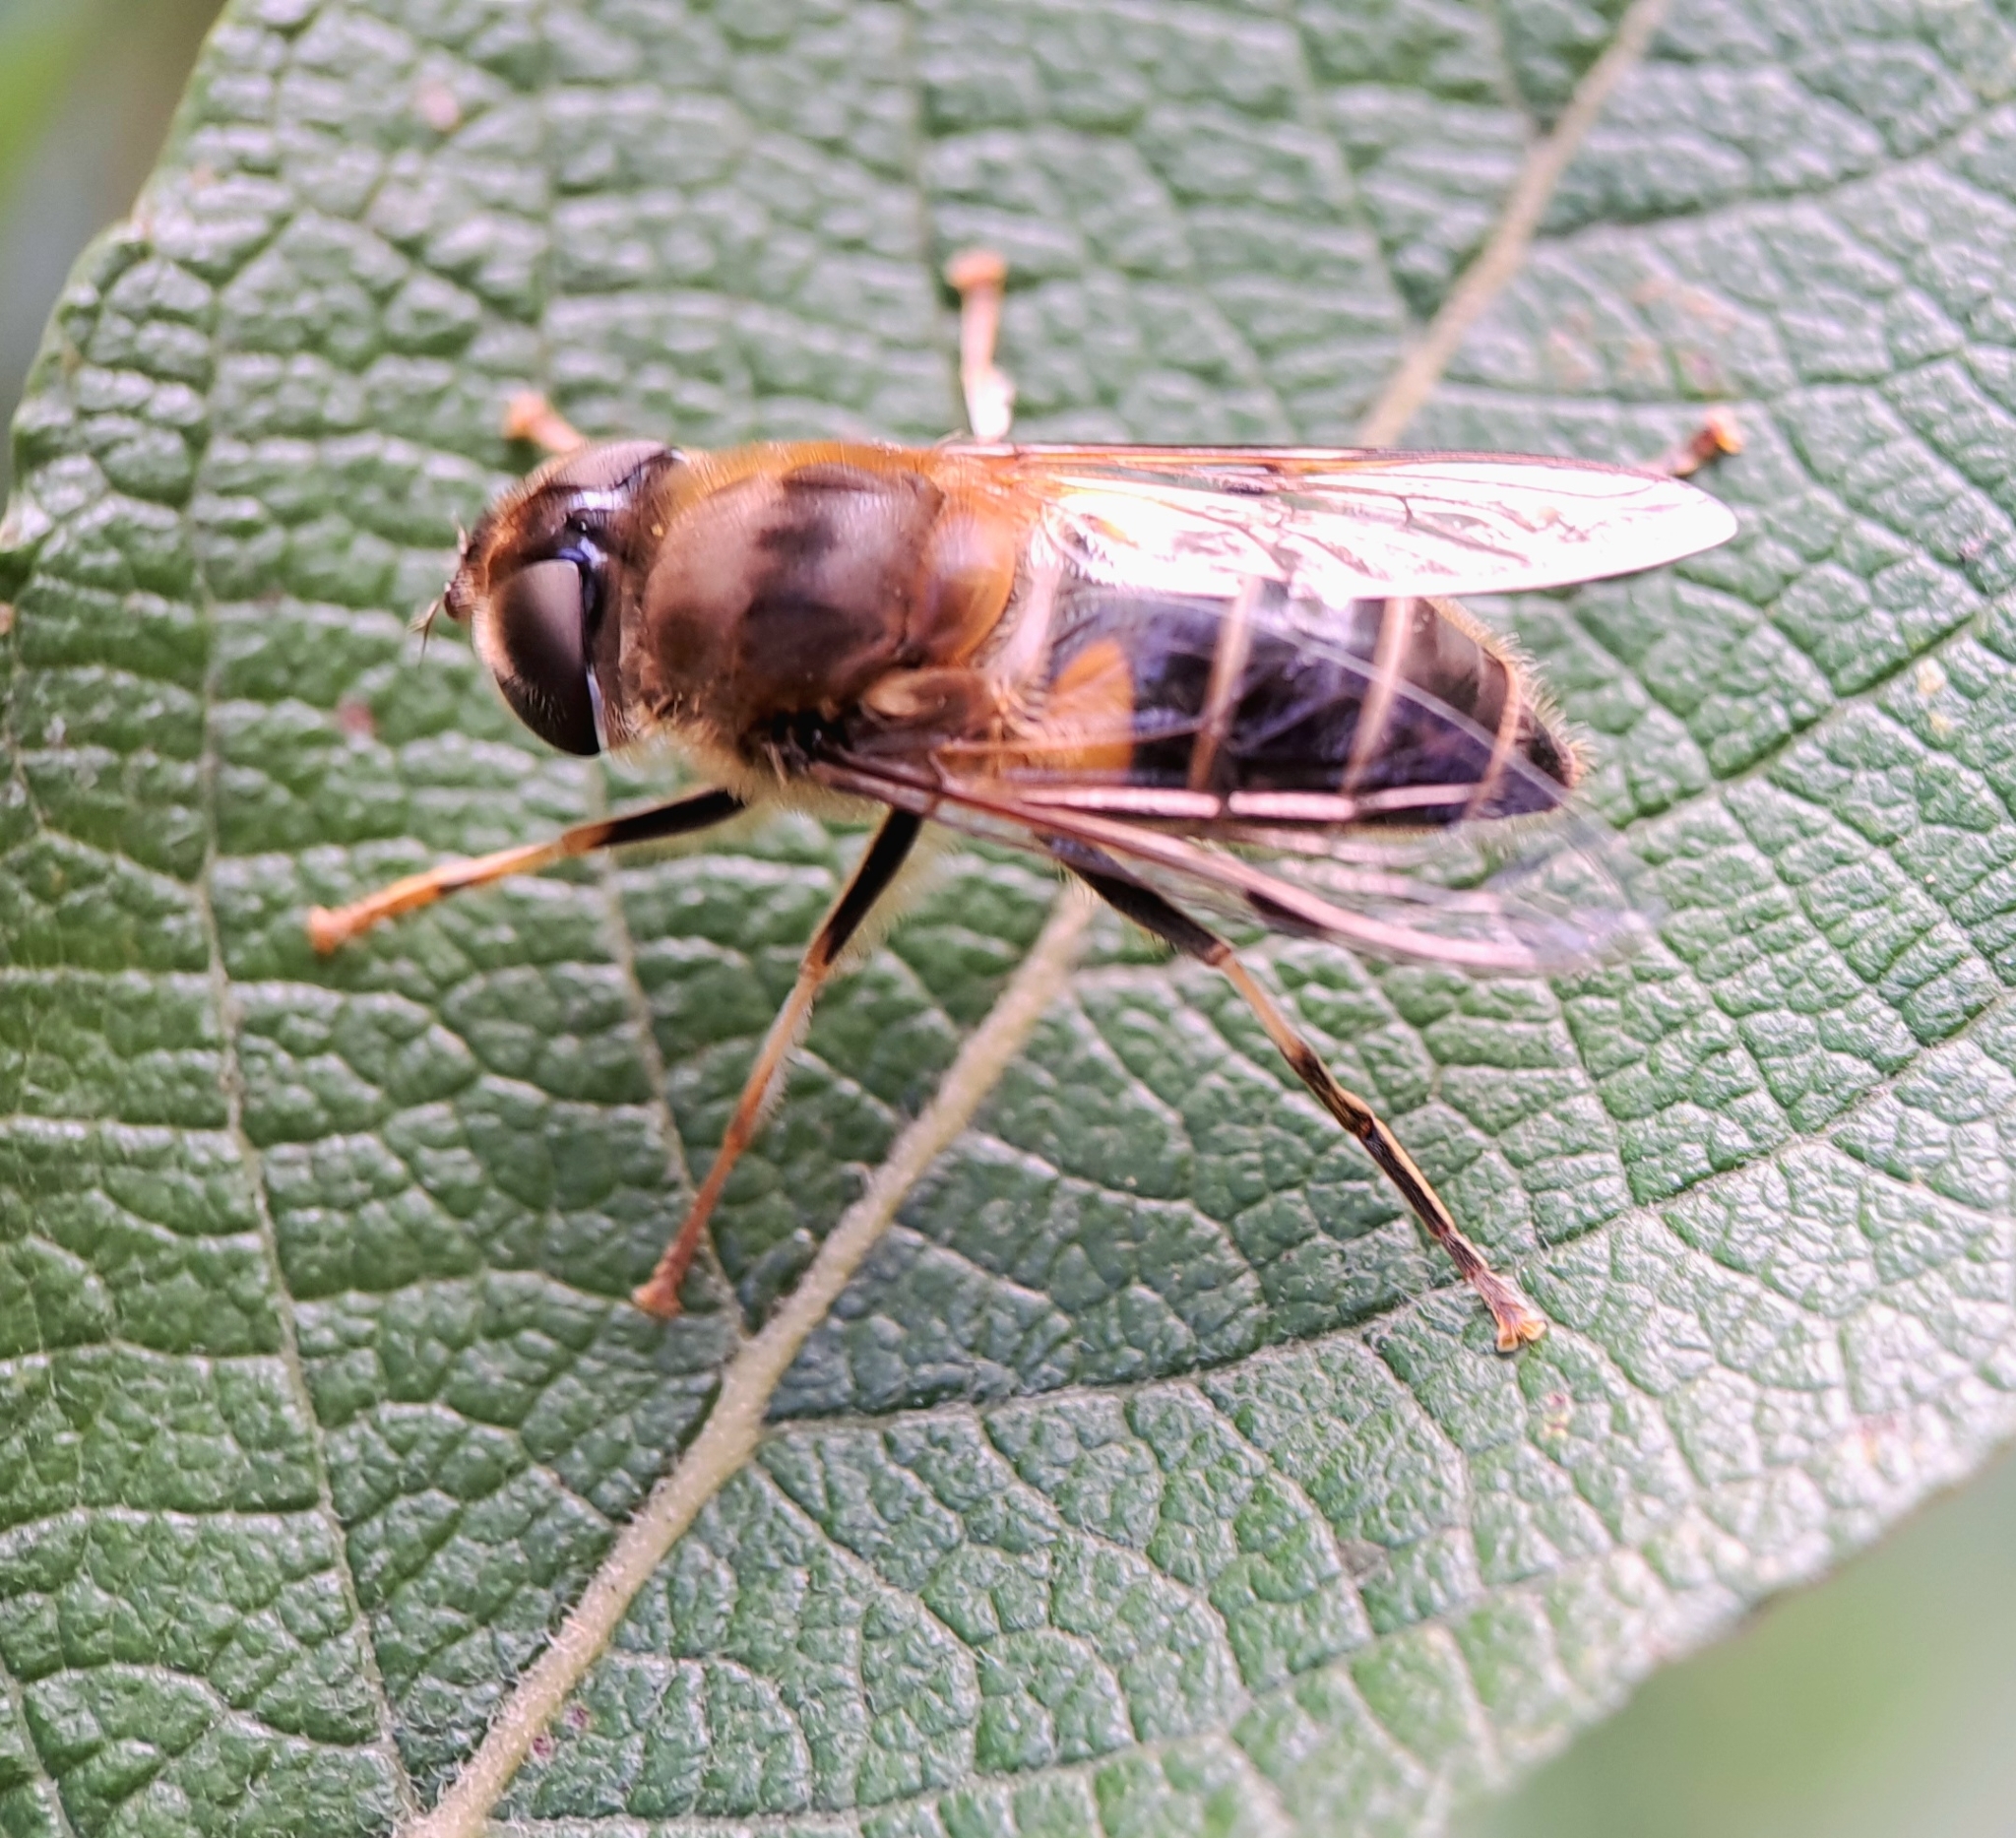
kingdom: Animalia
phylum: Arthropoda
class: Insecta
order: Diptera
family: Syrphidae
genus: Eristalis
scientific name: Eristalis pertinax
